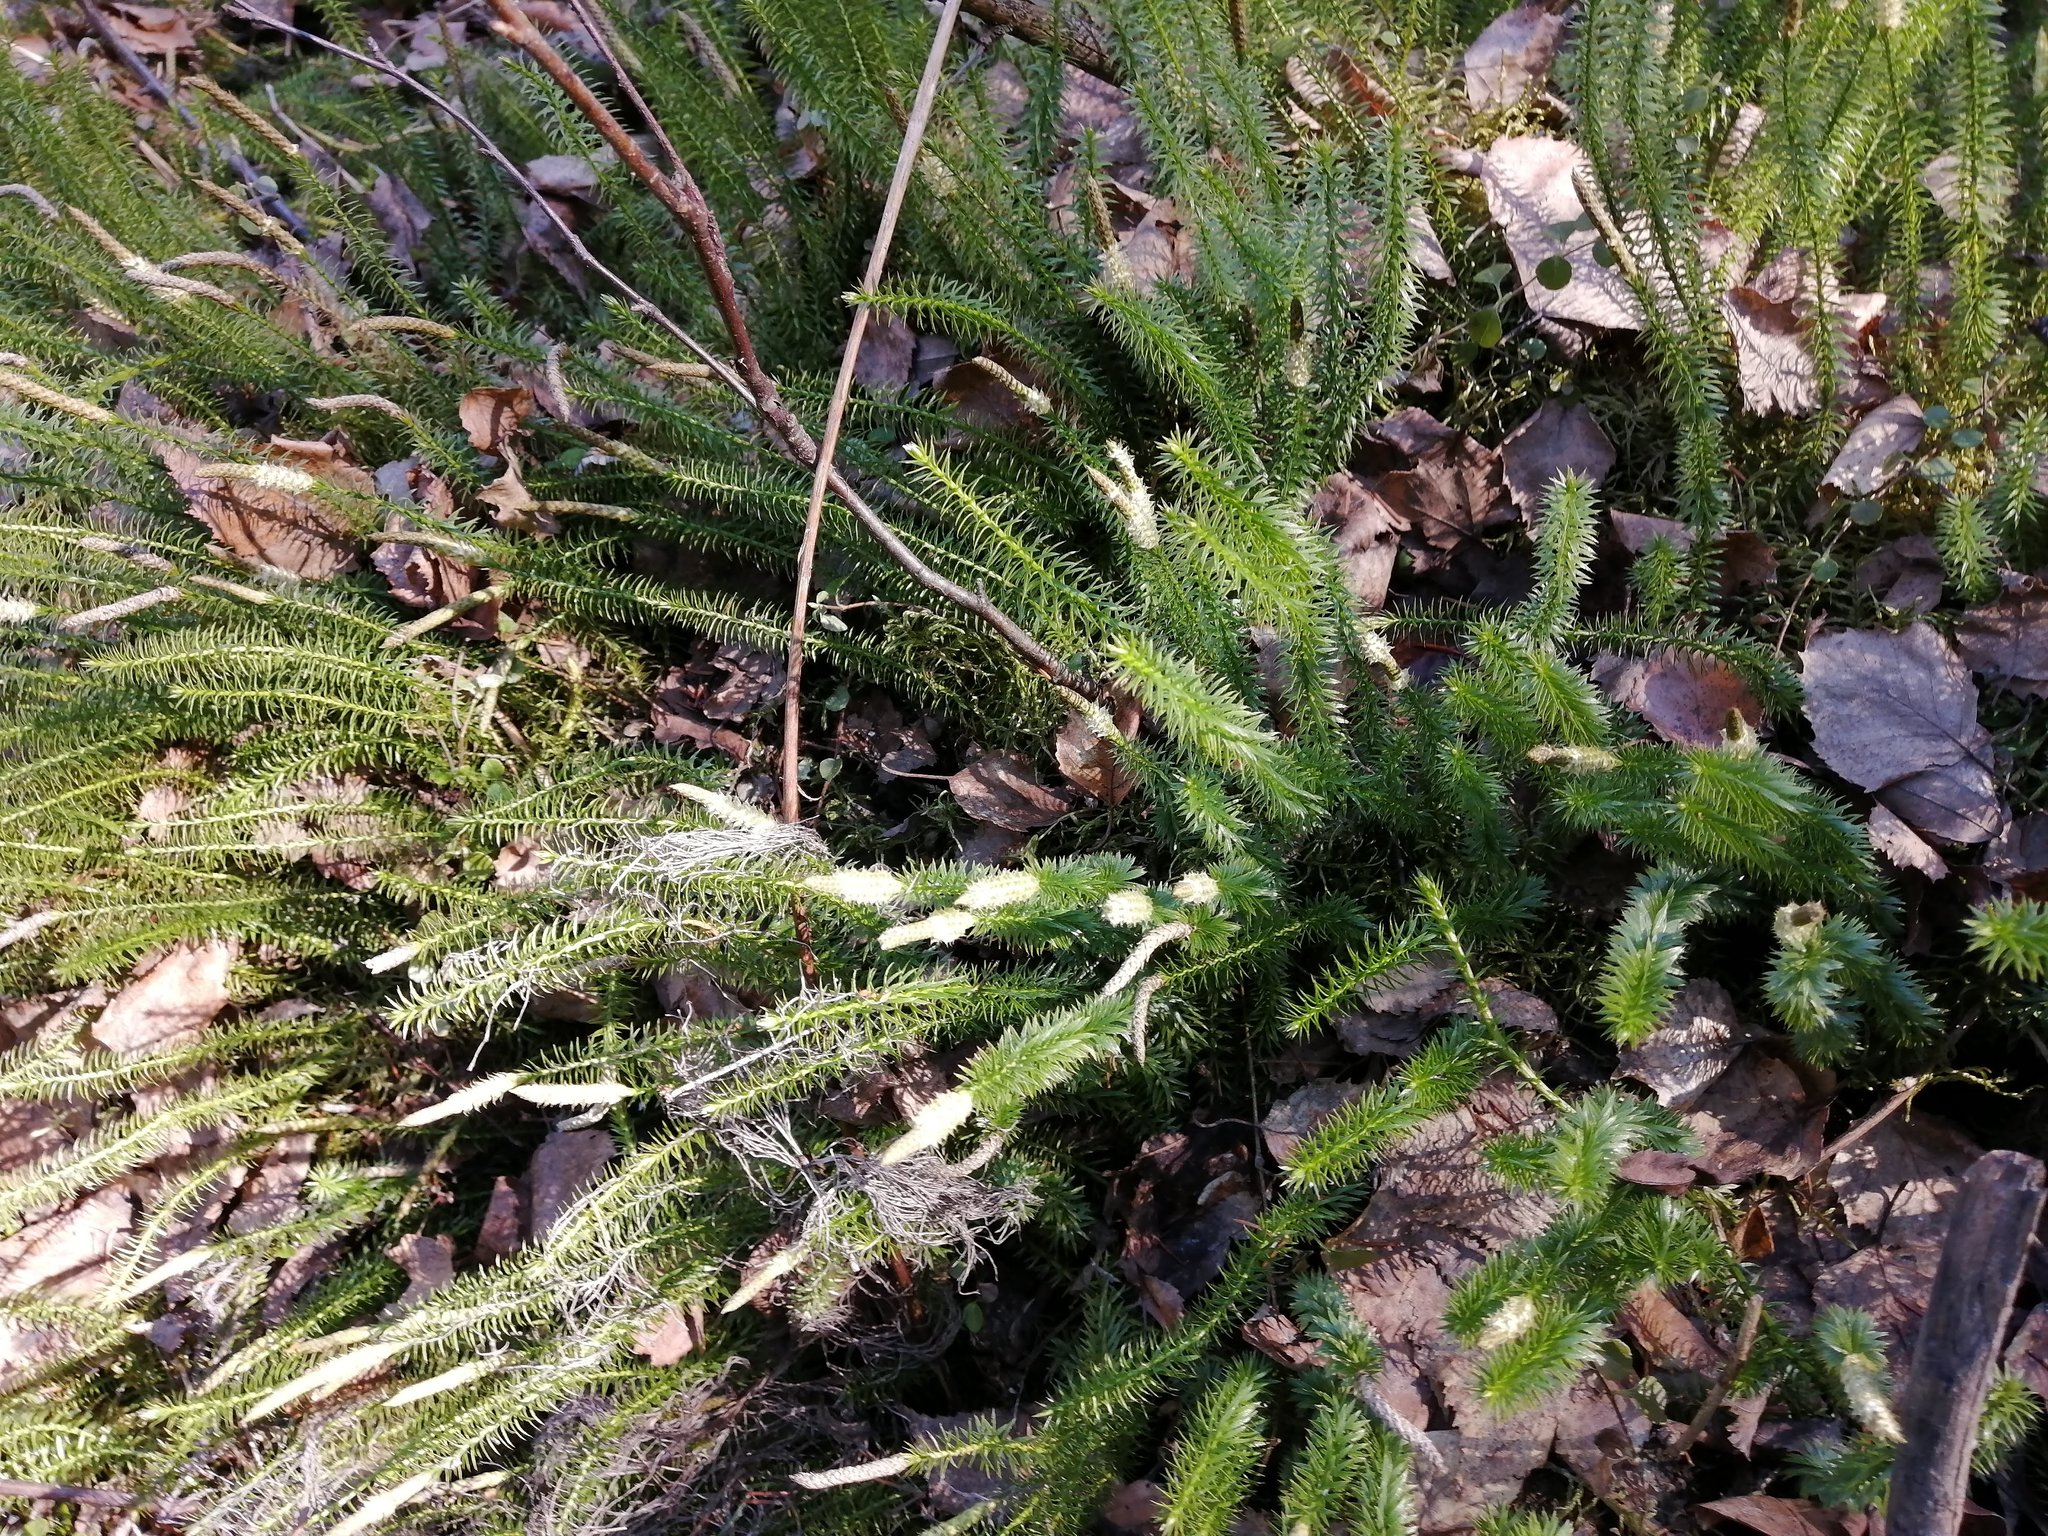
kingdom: Plantae
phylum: Tracheophyta
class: Lycopodiopsida
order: Lycopodiales
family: Lycopodiaceae
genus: Spinulum
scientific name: Spinulum annotinum
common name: Interrupted club-moss
